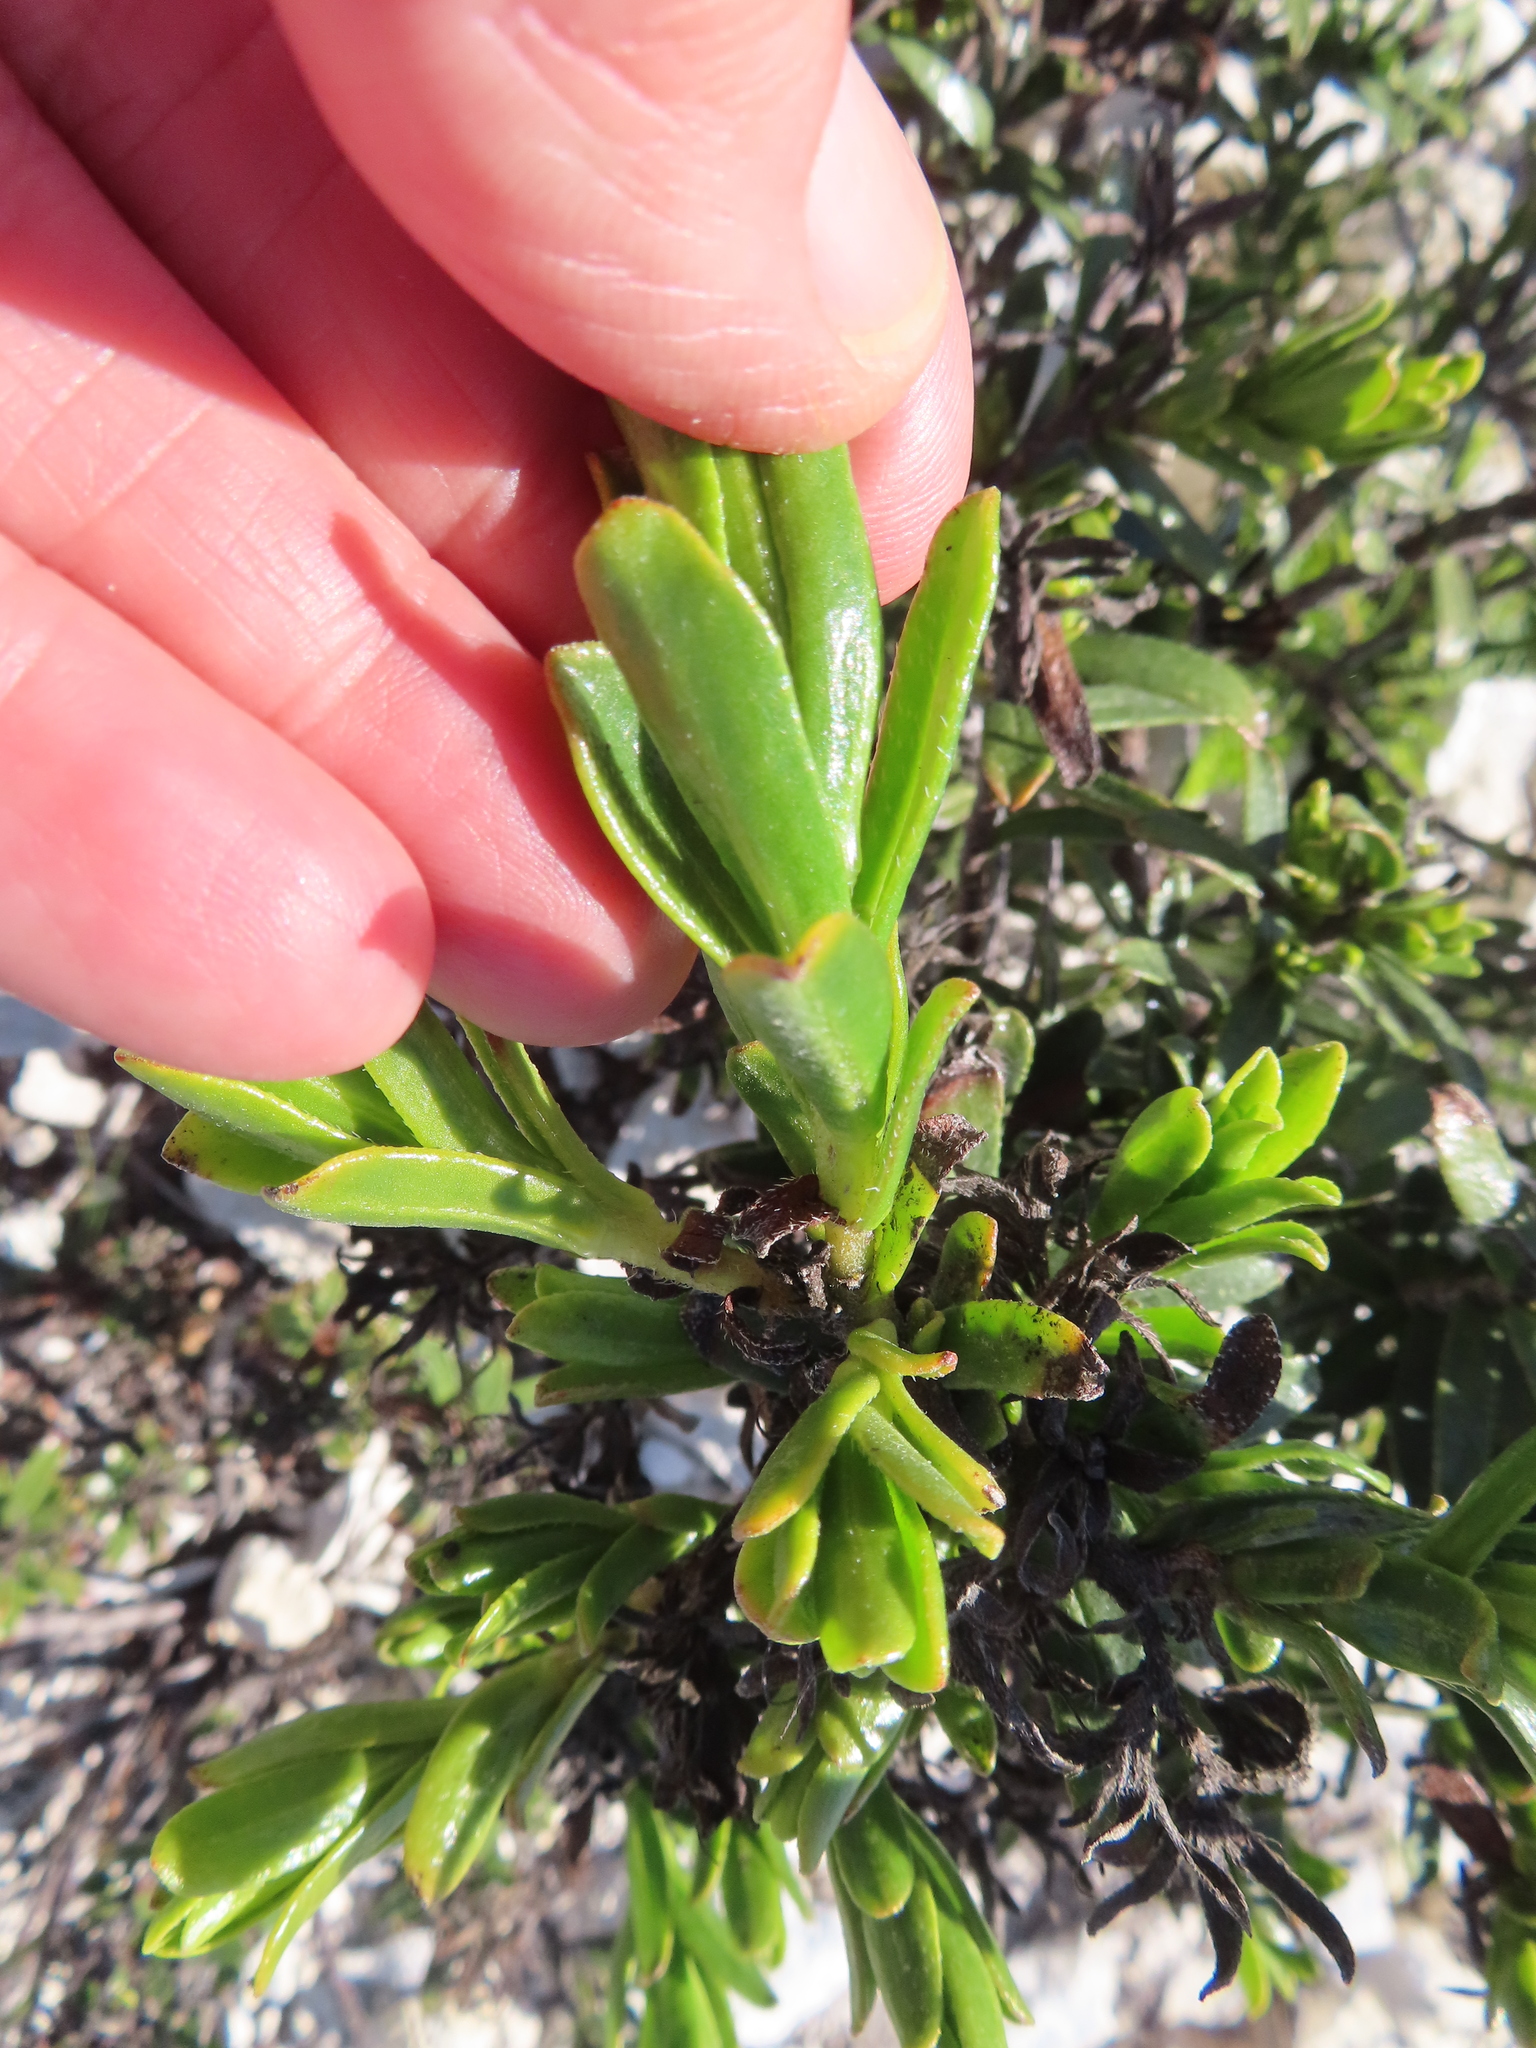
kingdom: Plantae
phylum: Tracheophyta
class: Magnoliopsida
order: Boraginales
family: Boraginaceae
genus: Lobostemon
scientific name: Lobostemon curvifolius
